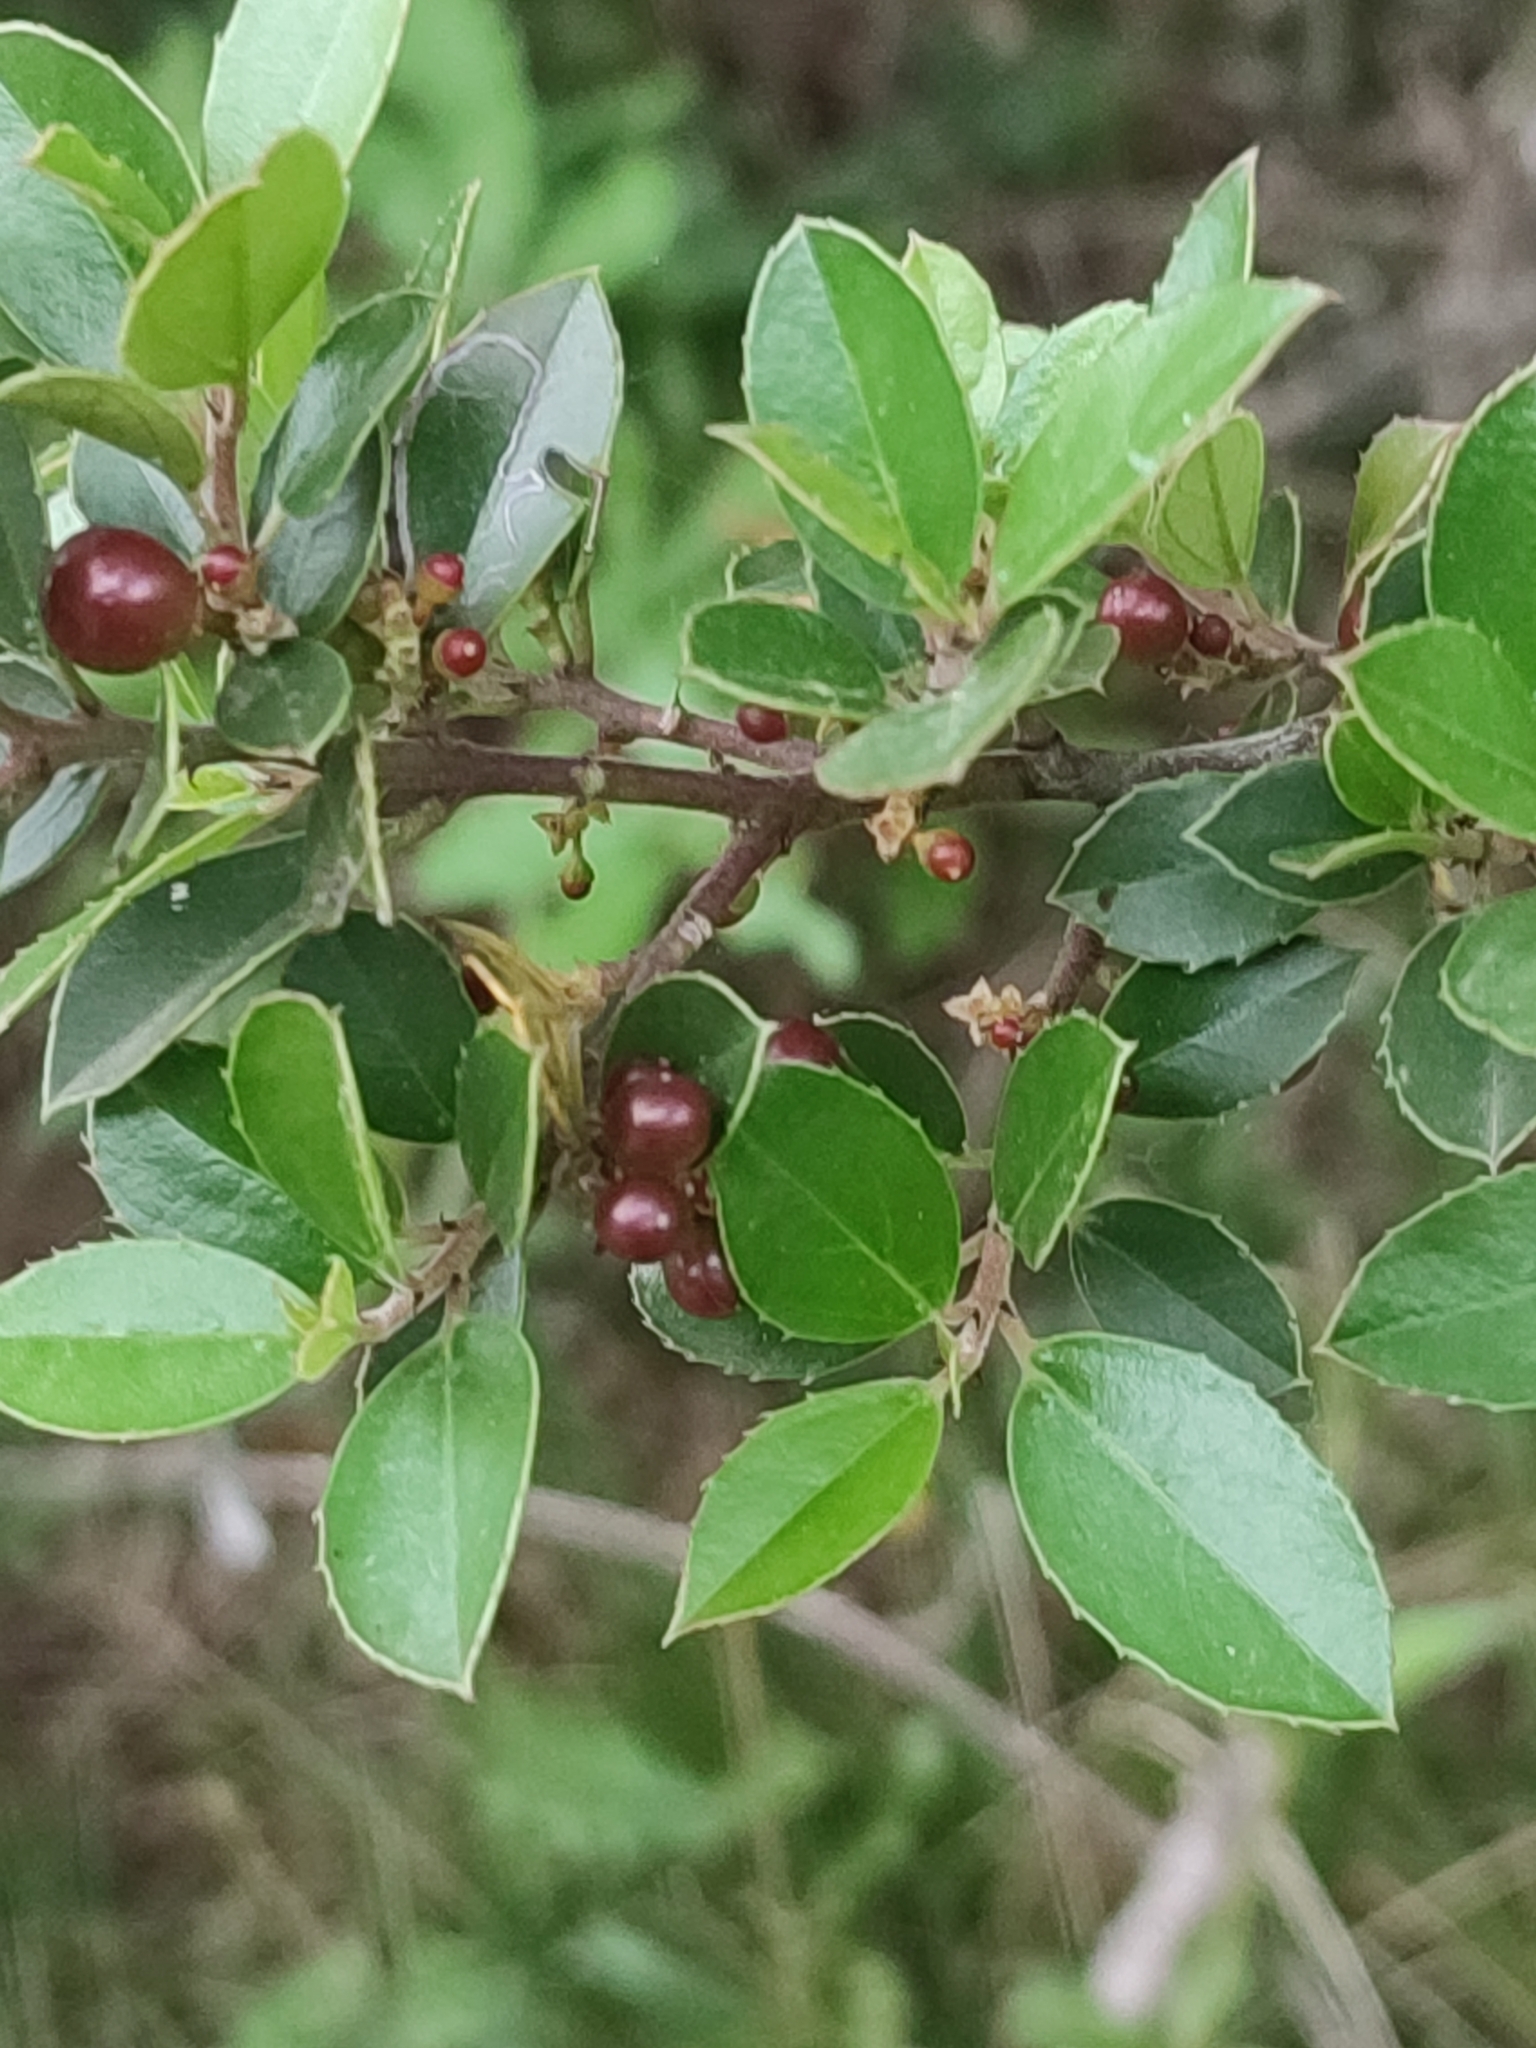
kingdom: Plantae
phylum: Tracheophyta
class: Magnoliopsida
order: Rosales
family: Rhamnaceae
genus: Rhamnus
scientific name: Rhamnus alaternus
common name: Mediterranean buckthorn
